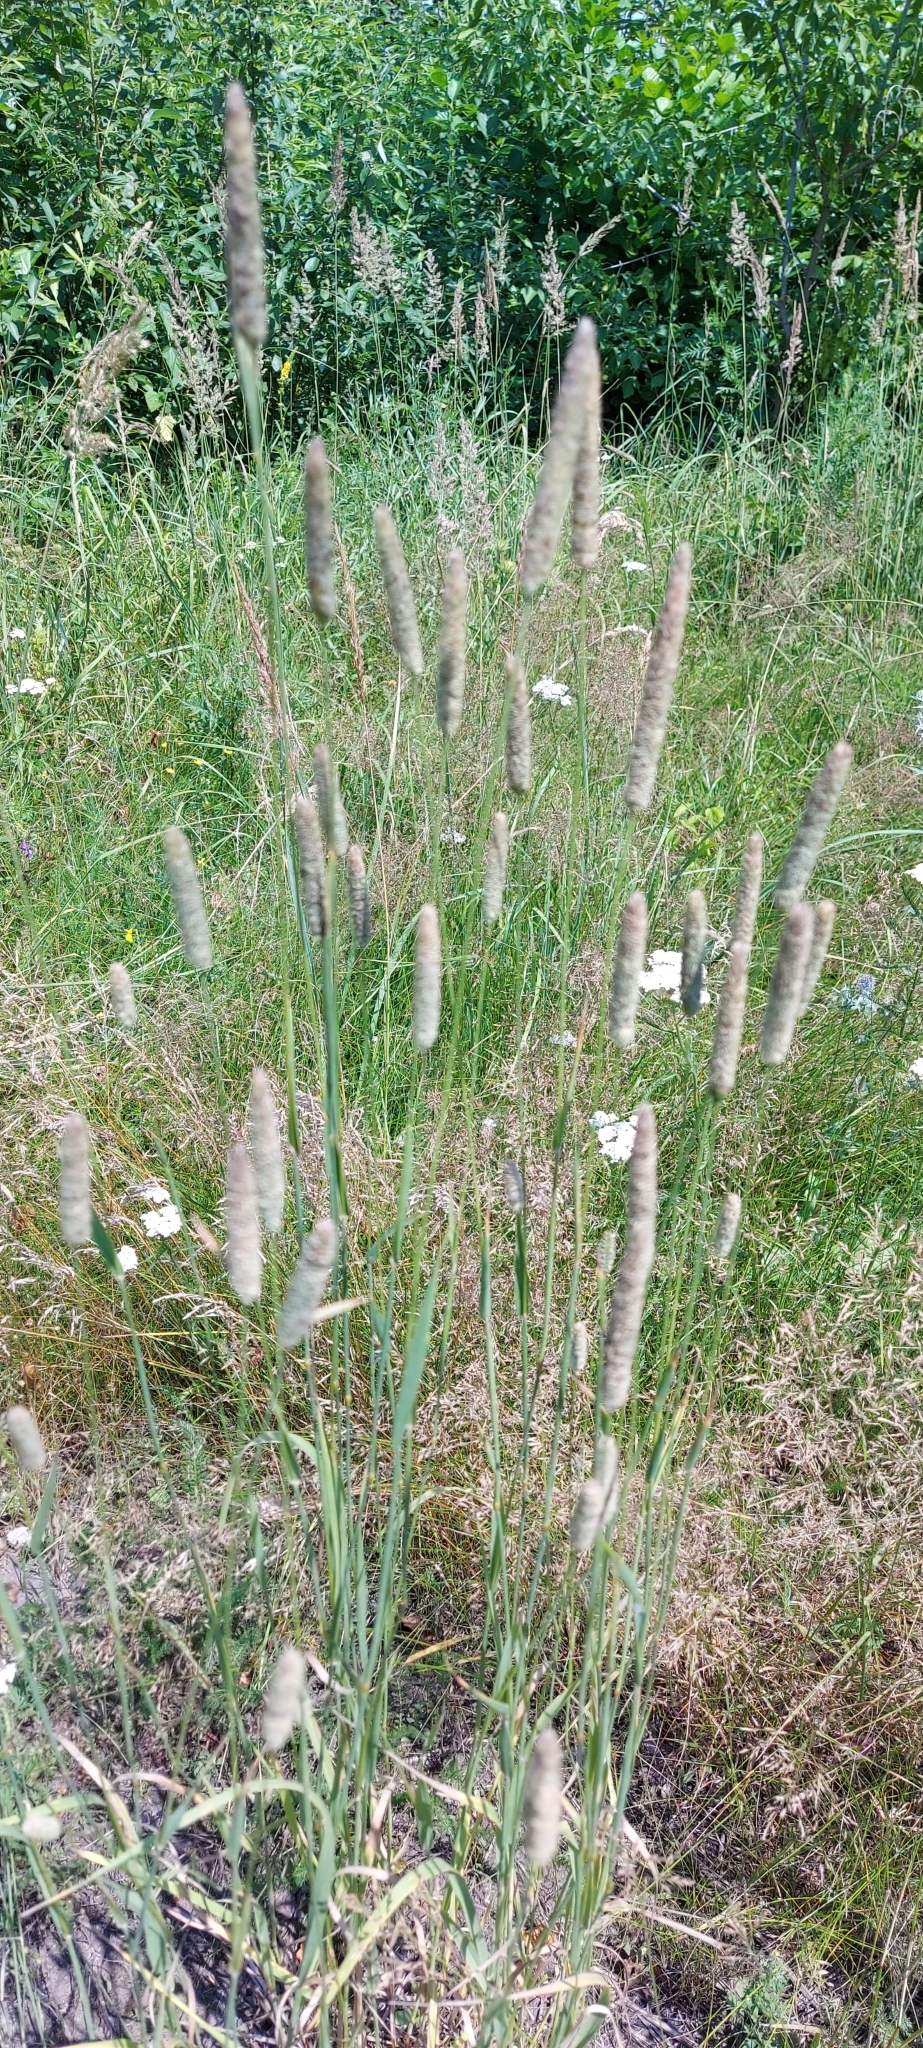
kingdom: Plantae
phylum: Tracheophyta
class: Liliopsida
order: Poales
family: Poaceae
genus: Phleum
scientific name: Phleum pratense
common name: Timothy grass
